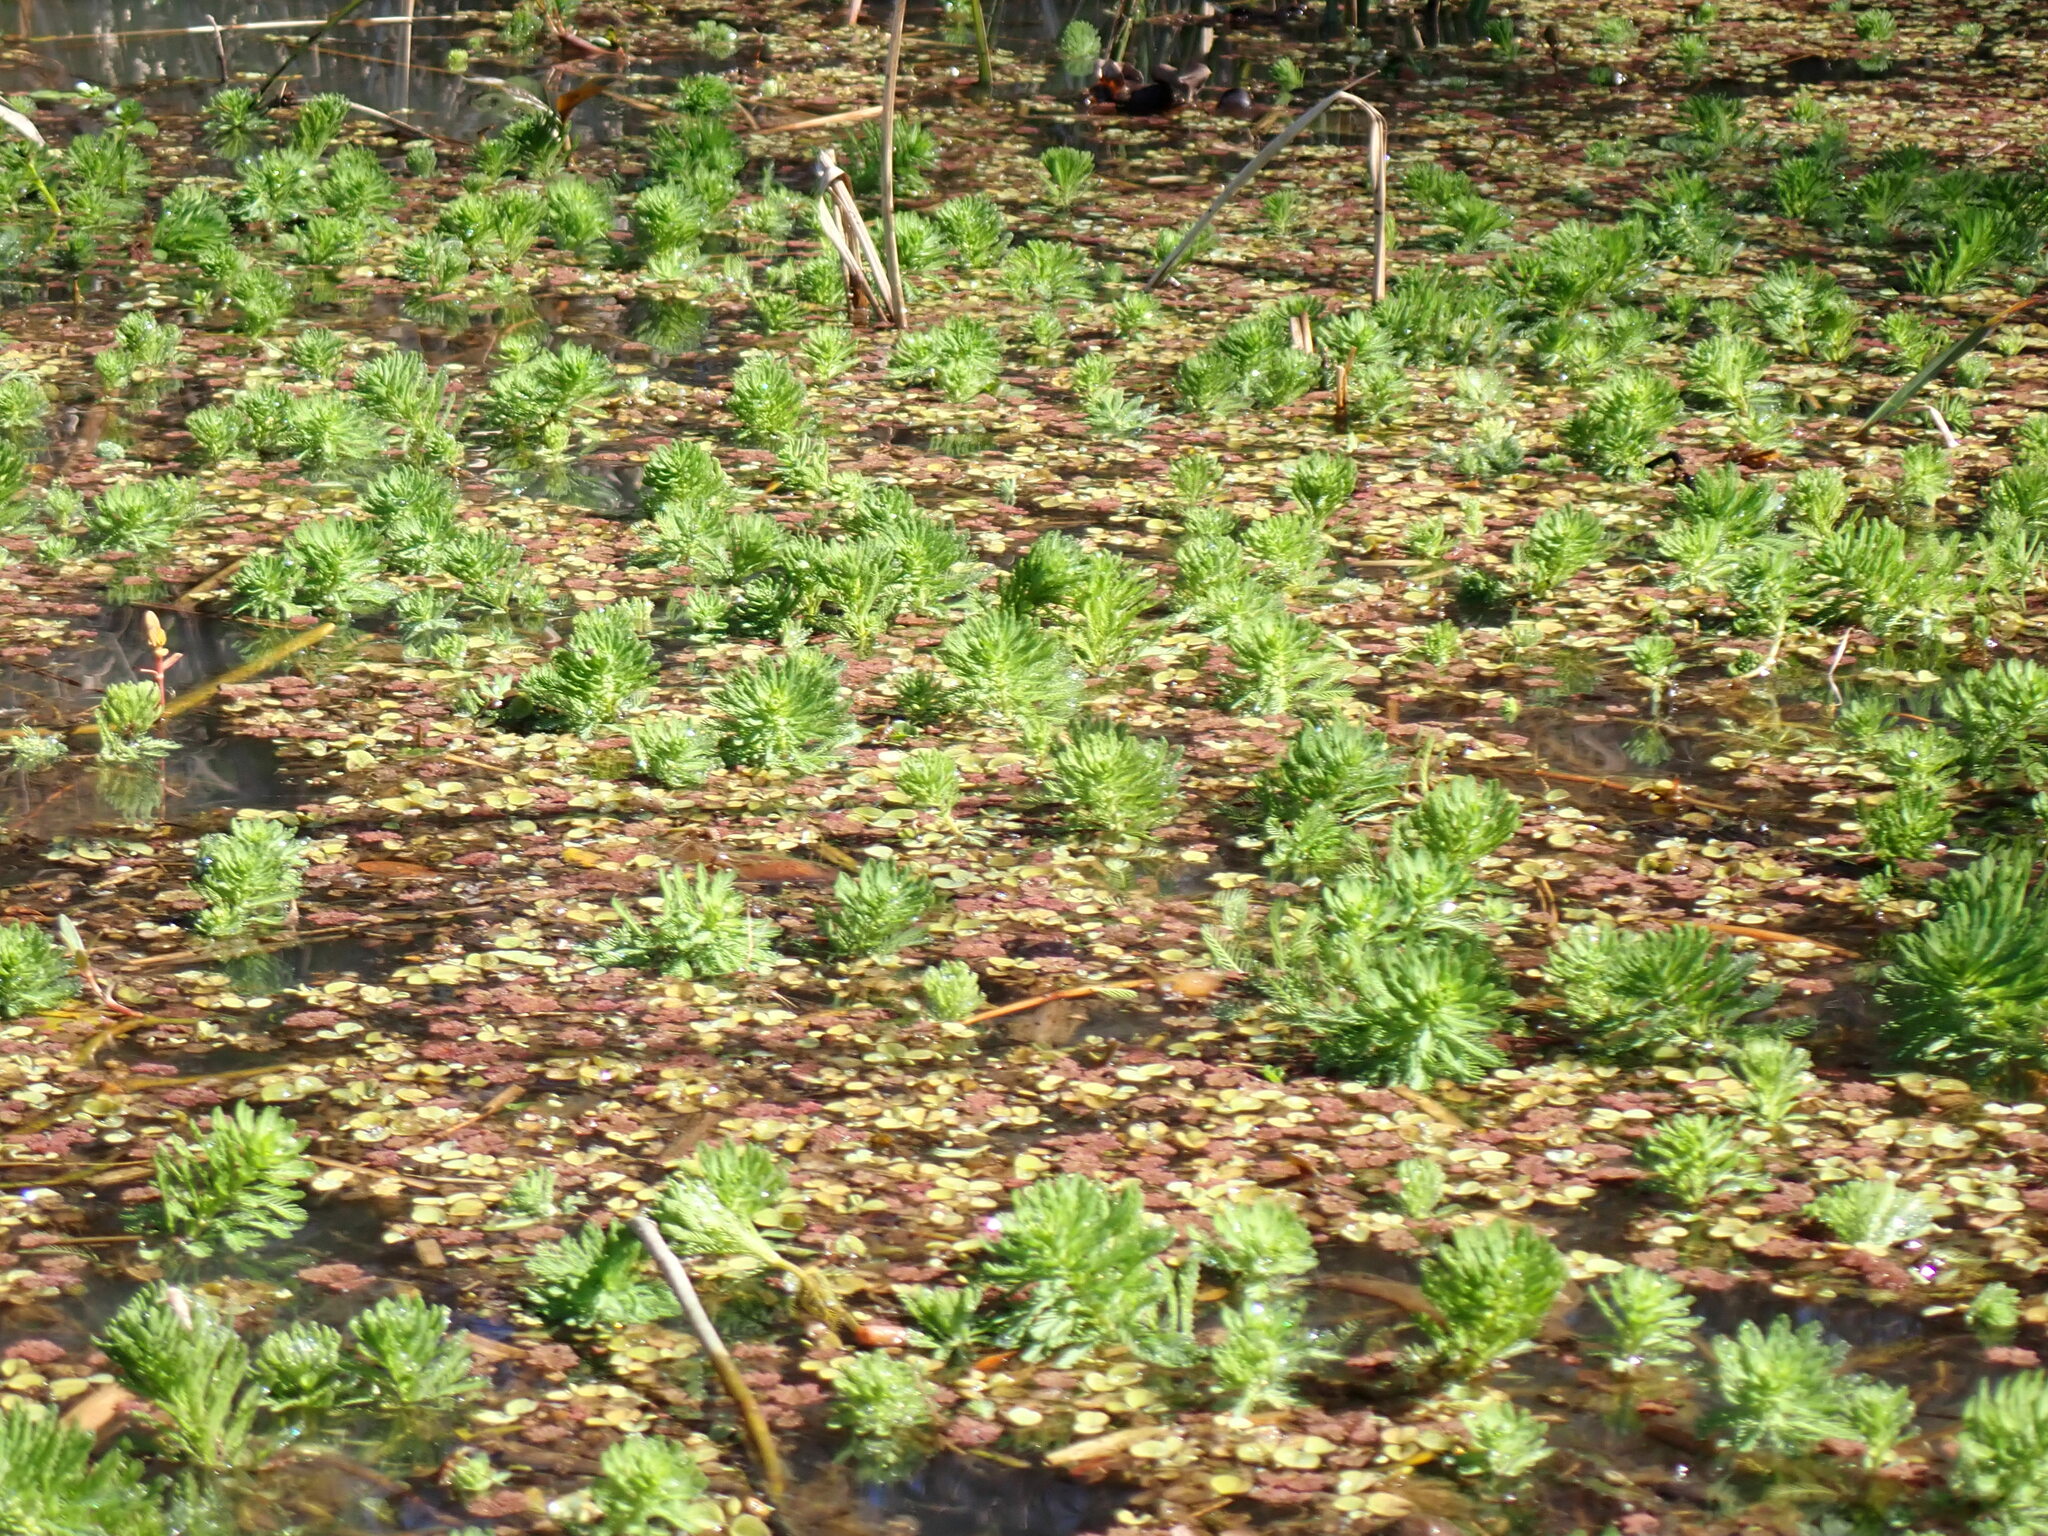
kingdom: Plantae
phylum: Tracheophyta
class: Magnoliopsida
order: Saxifragales
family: Haloragaceae
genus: Myriophyllum
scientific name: Myriophyllum aquaticum
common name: Parrot's feather
